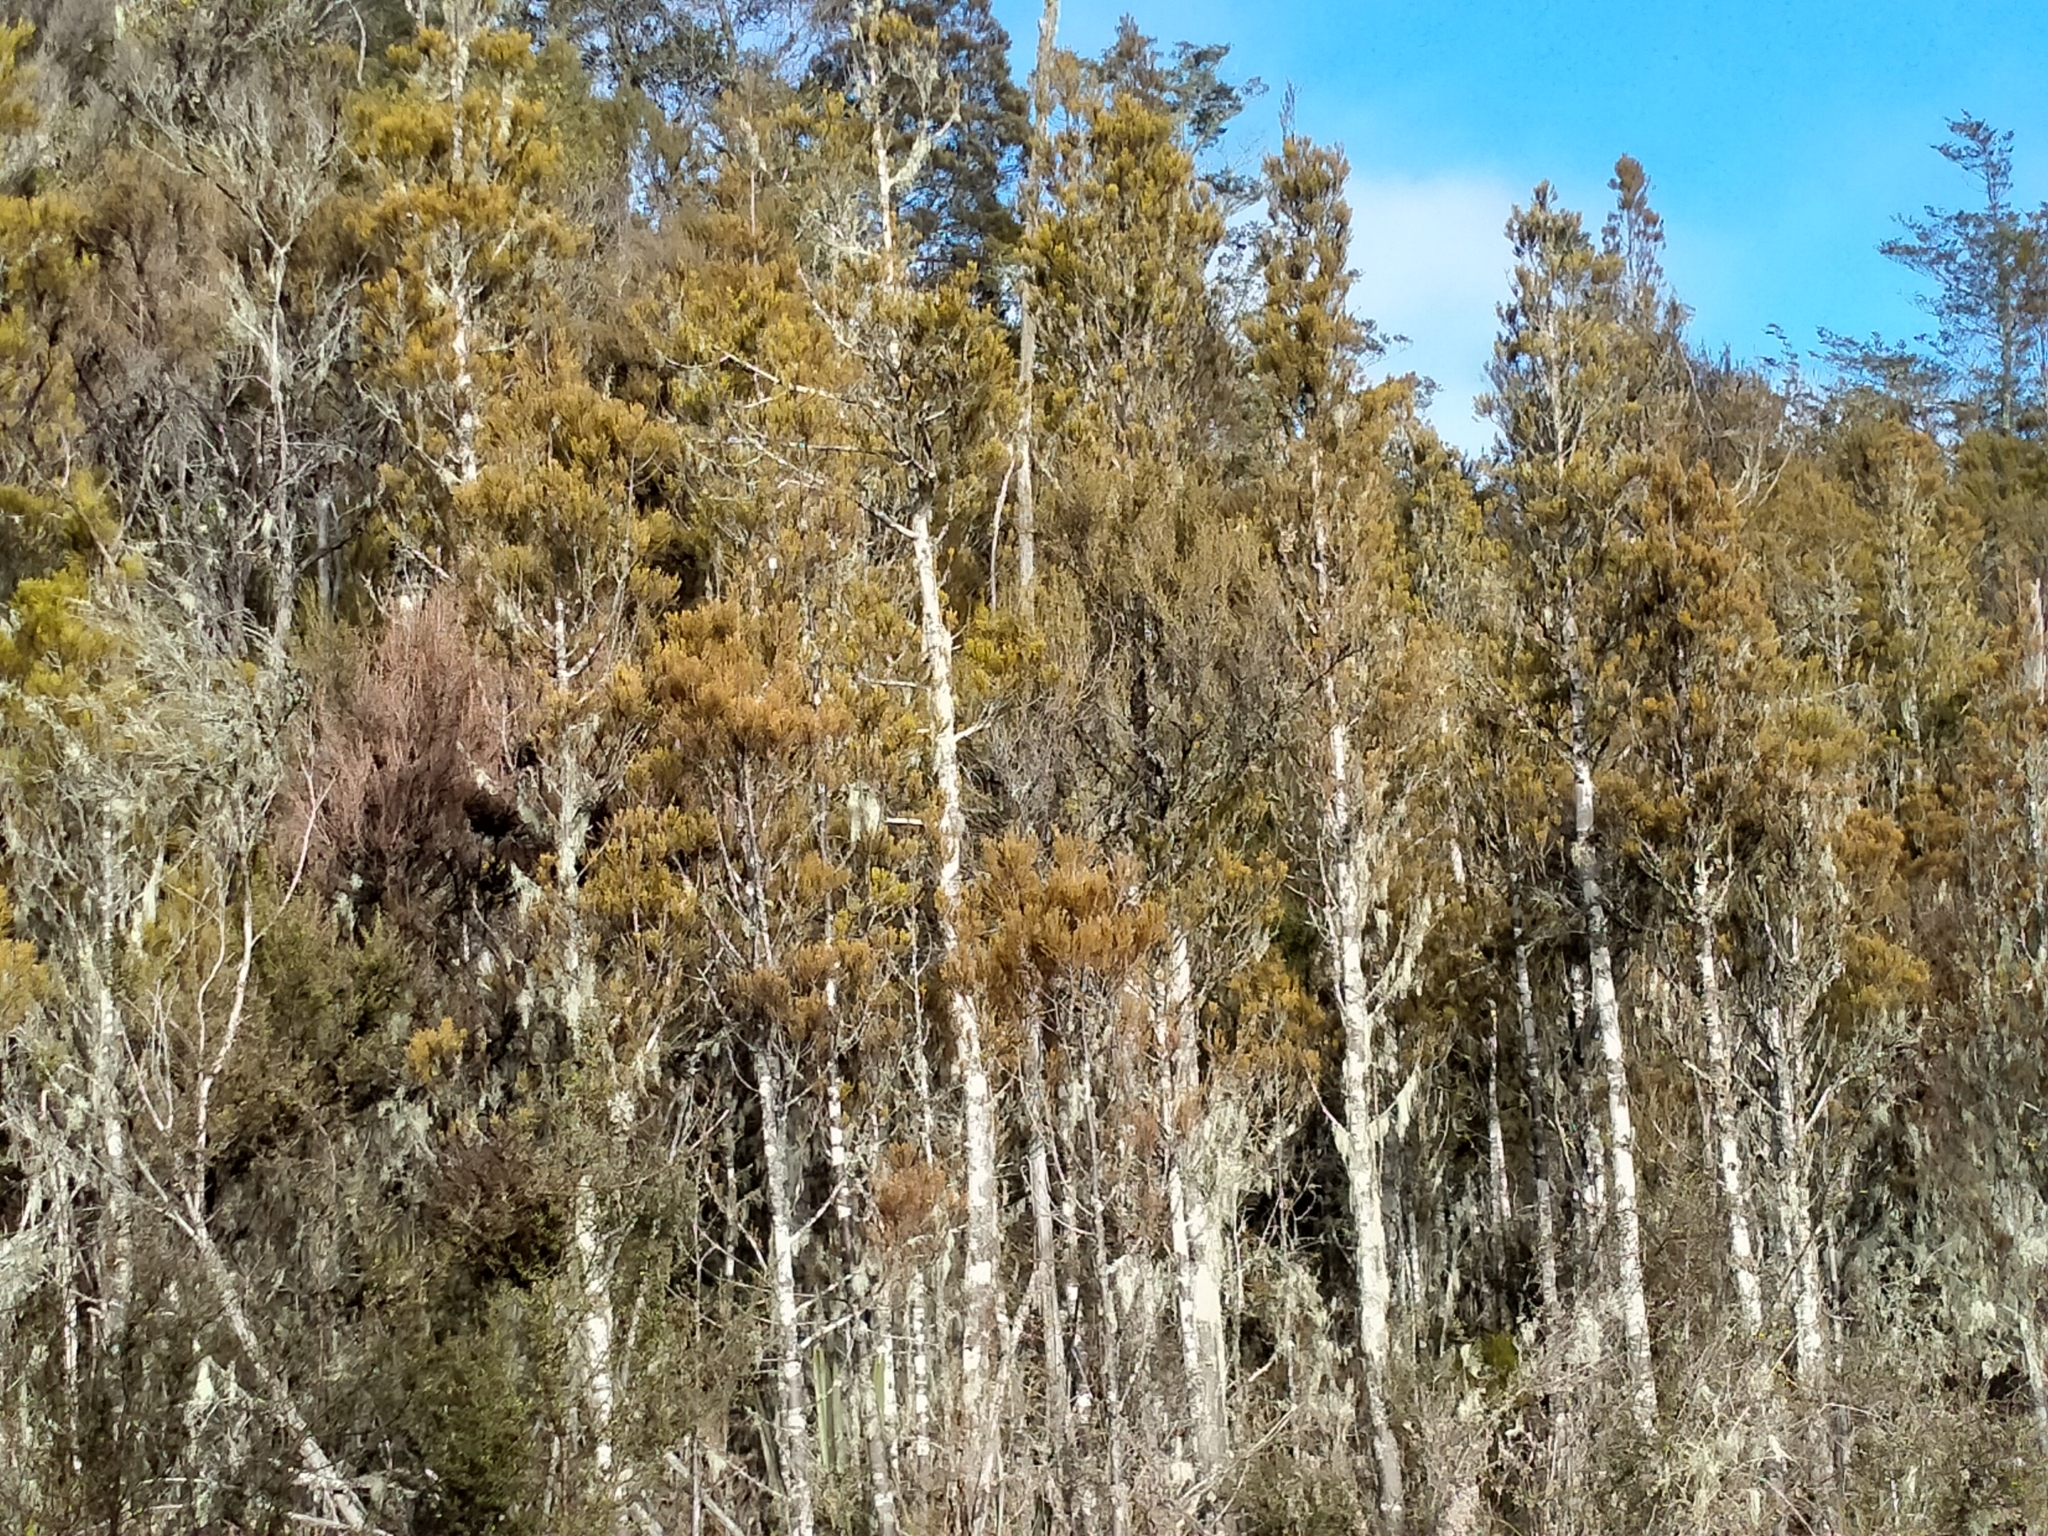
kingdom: Plantae
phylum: Tracheophyta
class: Pinopsida
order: Pinales
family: Podocarpaceae
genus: Dacrycarpus
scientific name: Dacrycarpus dacrydioides
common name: White pine
